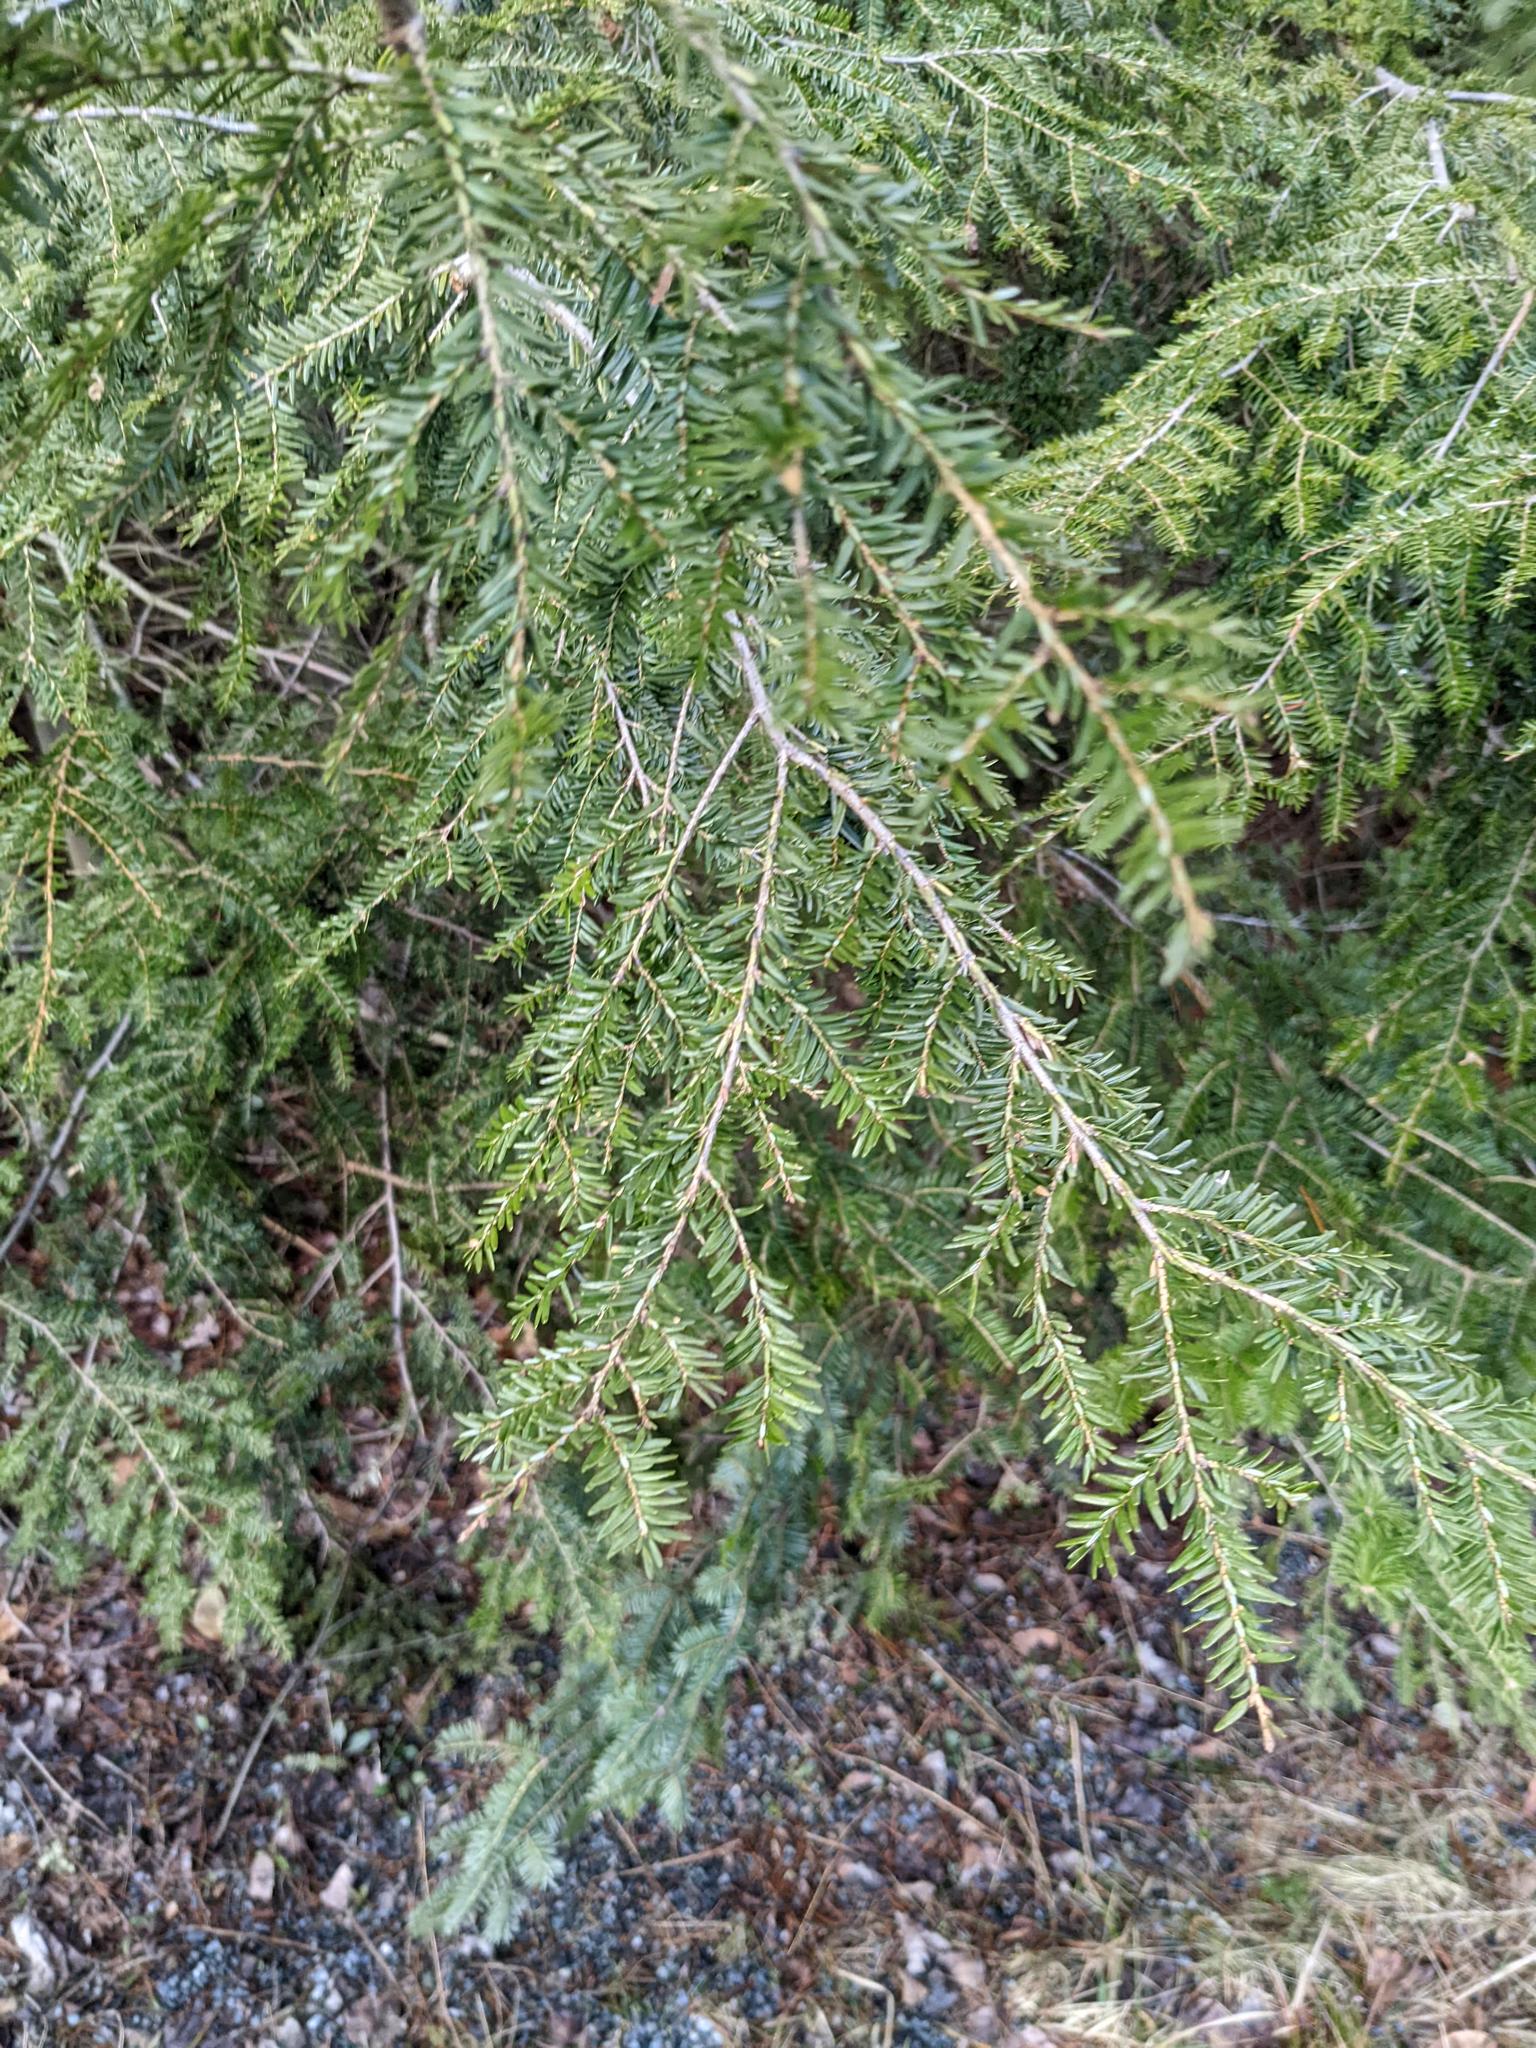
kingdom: Plantae
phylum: Tracheophyta
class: Pinopsida
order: Pinales
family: Pinaceae
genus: Tsuga
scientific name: Tsuga canadensis
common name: Eastern hemlock
